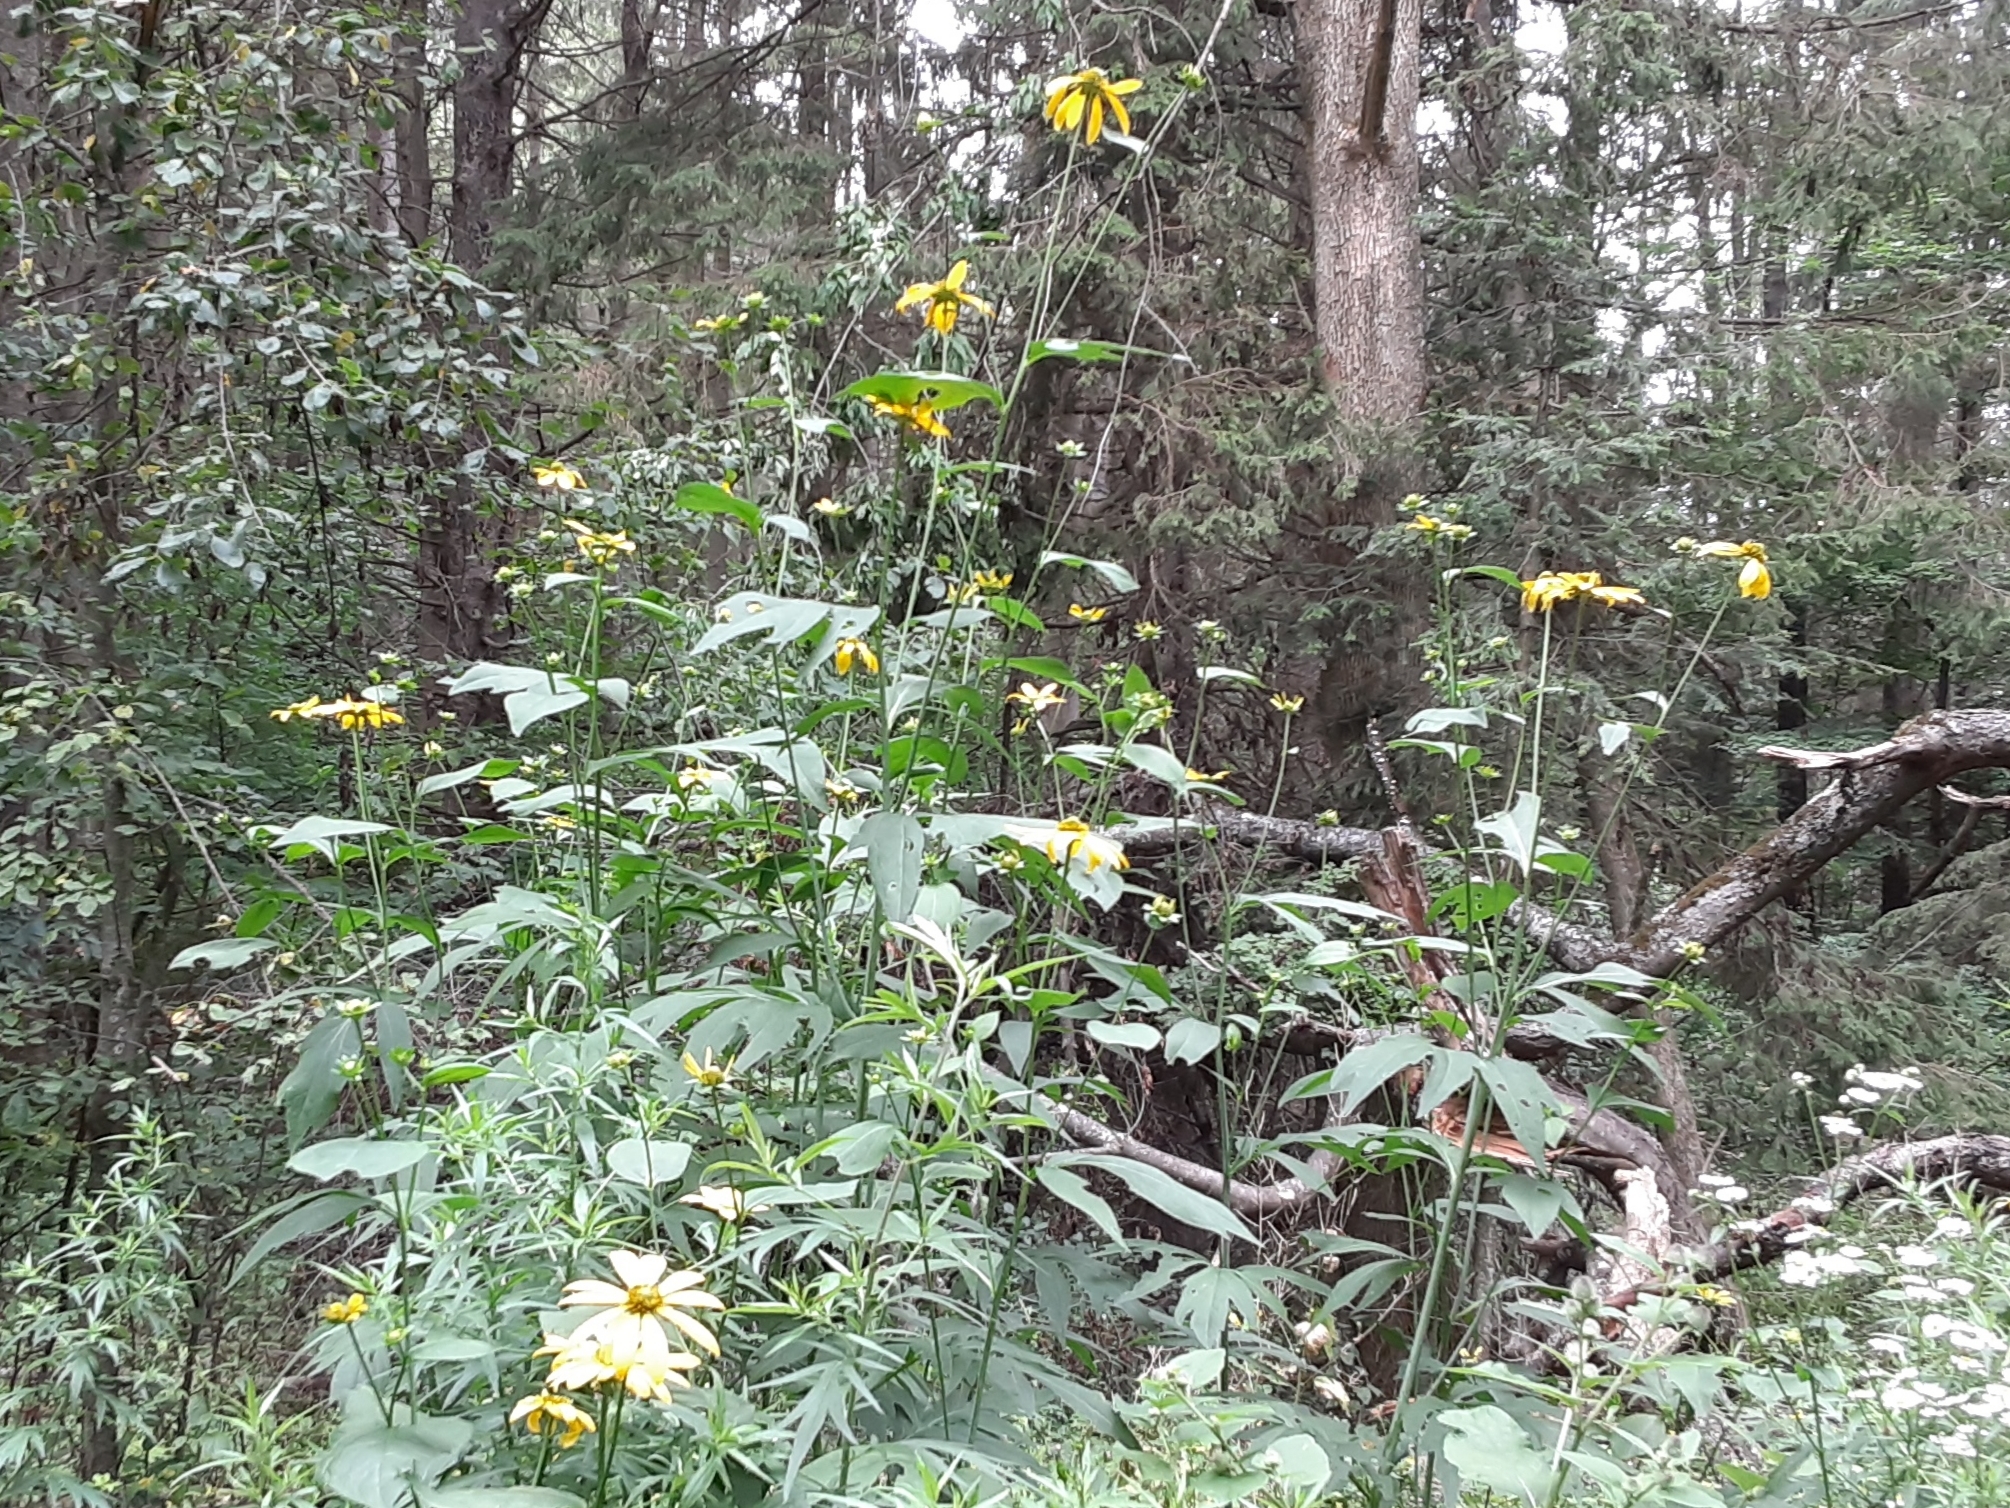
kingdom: Plantae
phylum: Tracheophyta
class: Magnoliopsida
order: Asterales
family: Asteraceae
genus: Rudbeckia
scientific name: Rudbeckia laciniata
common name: Coneflower
